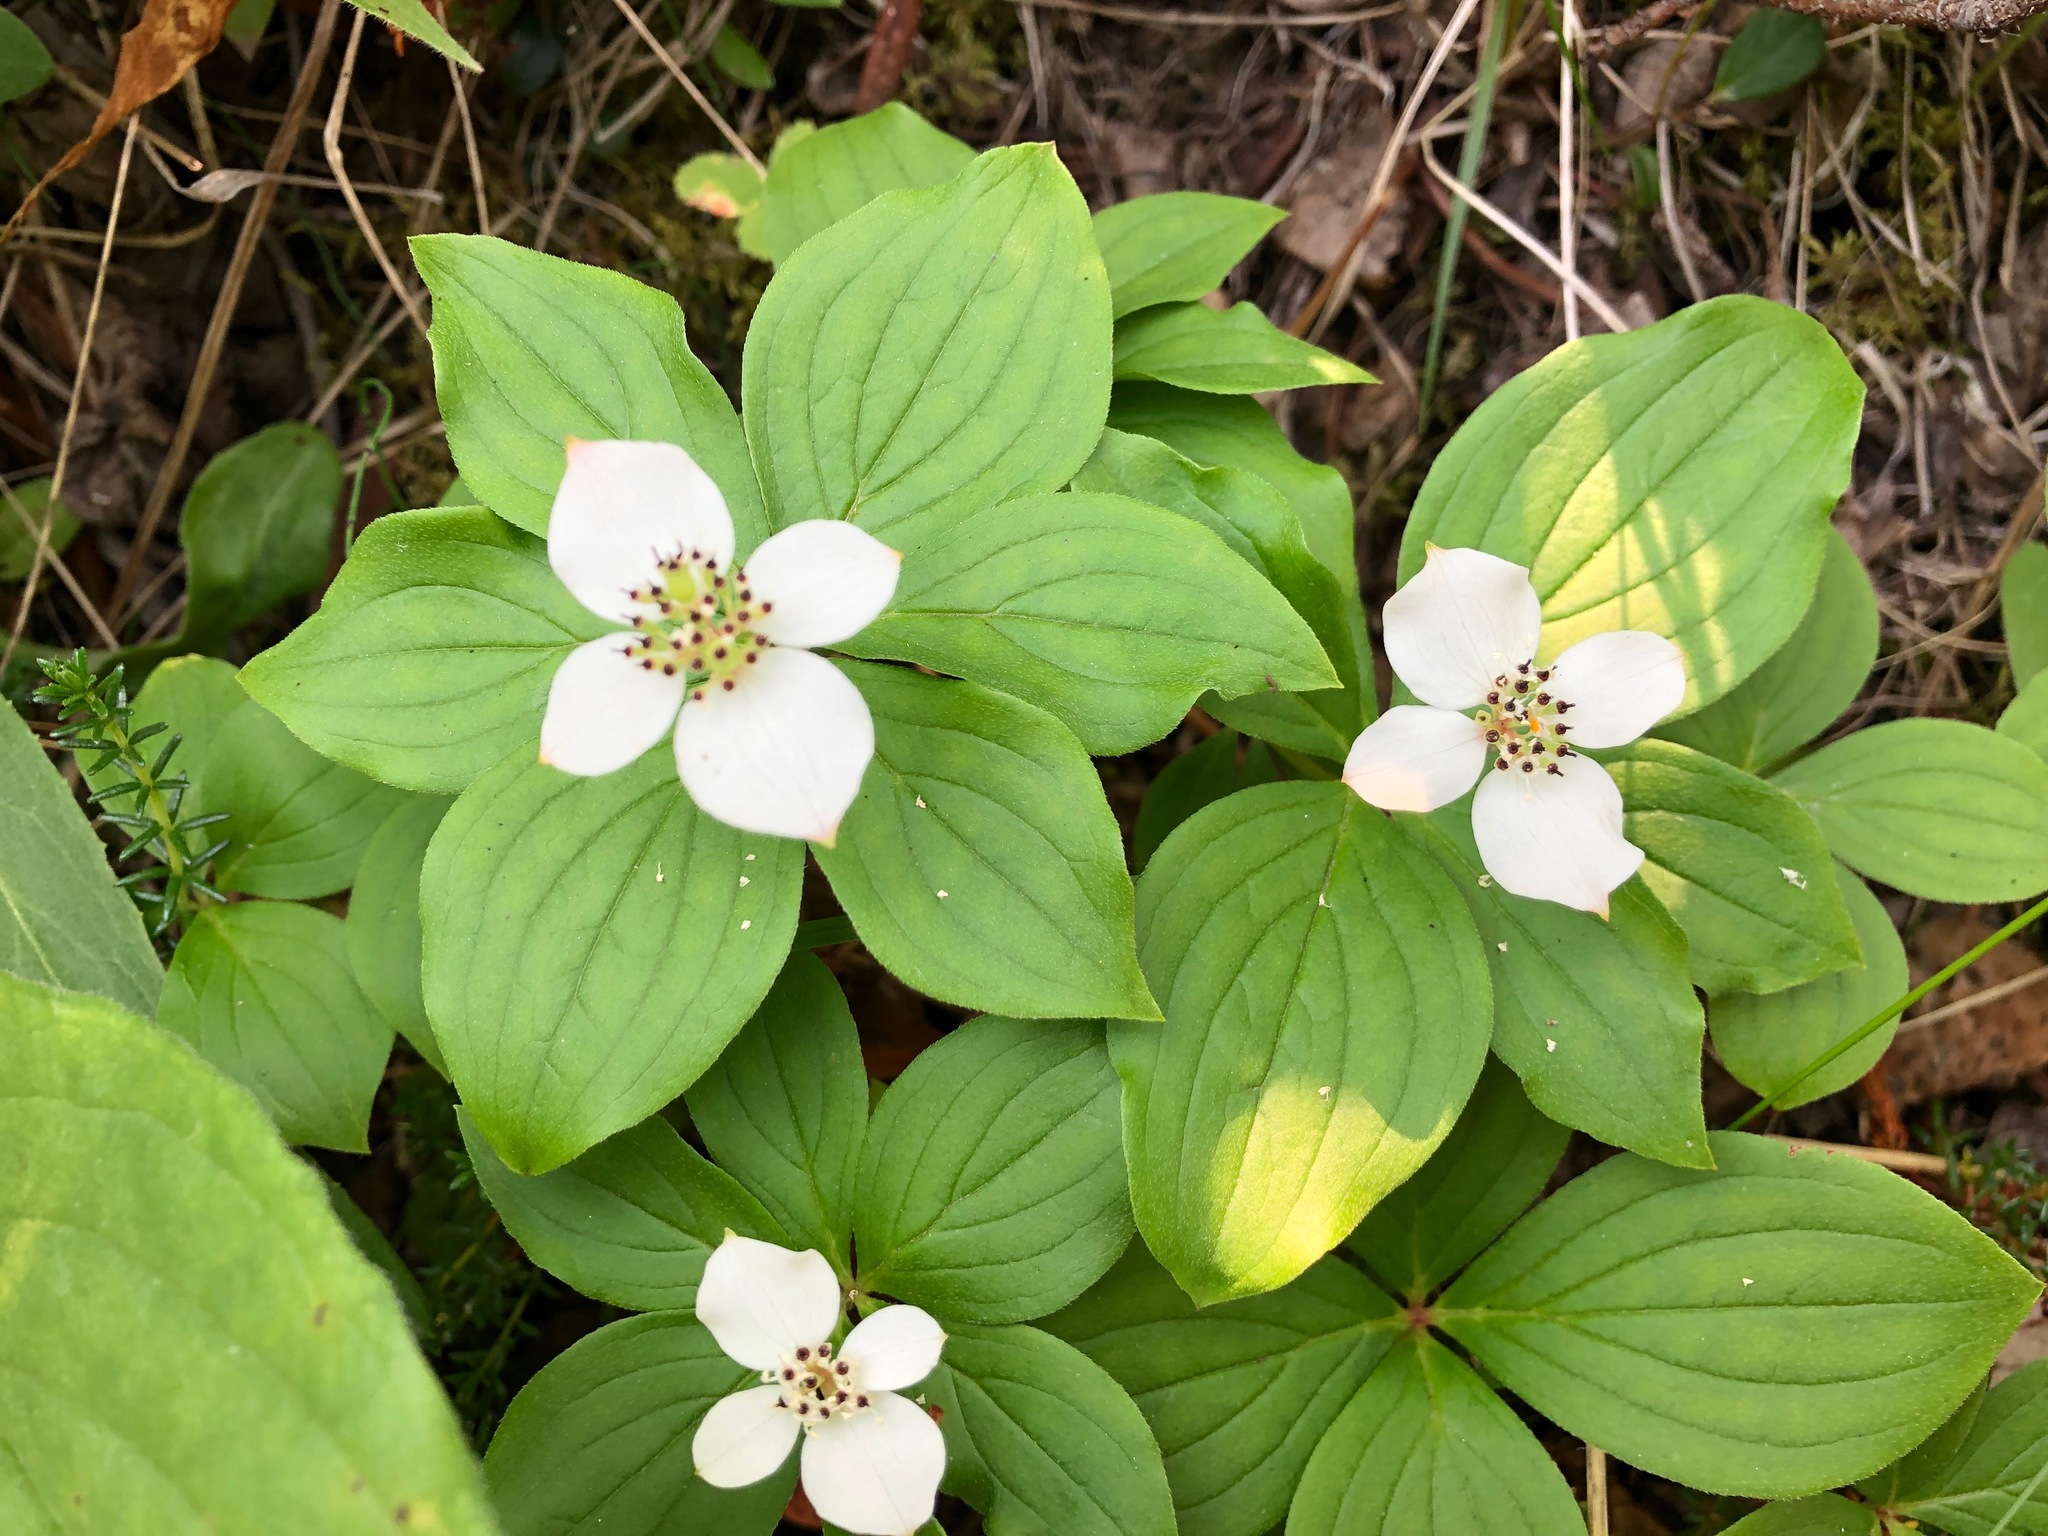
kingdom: Plantae
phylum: Tracheophyta
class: Magnoliopsida
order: Cornales
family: Cornaceae
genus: Cornus
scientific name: Cornus canadensis
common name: Creeping dogwood
